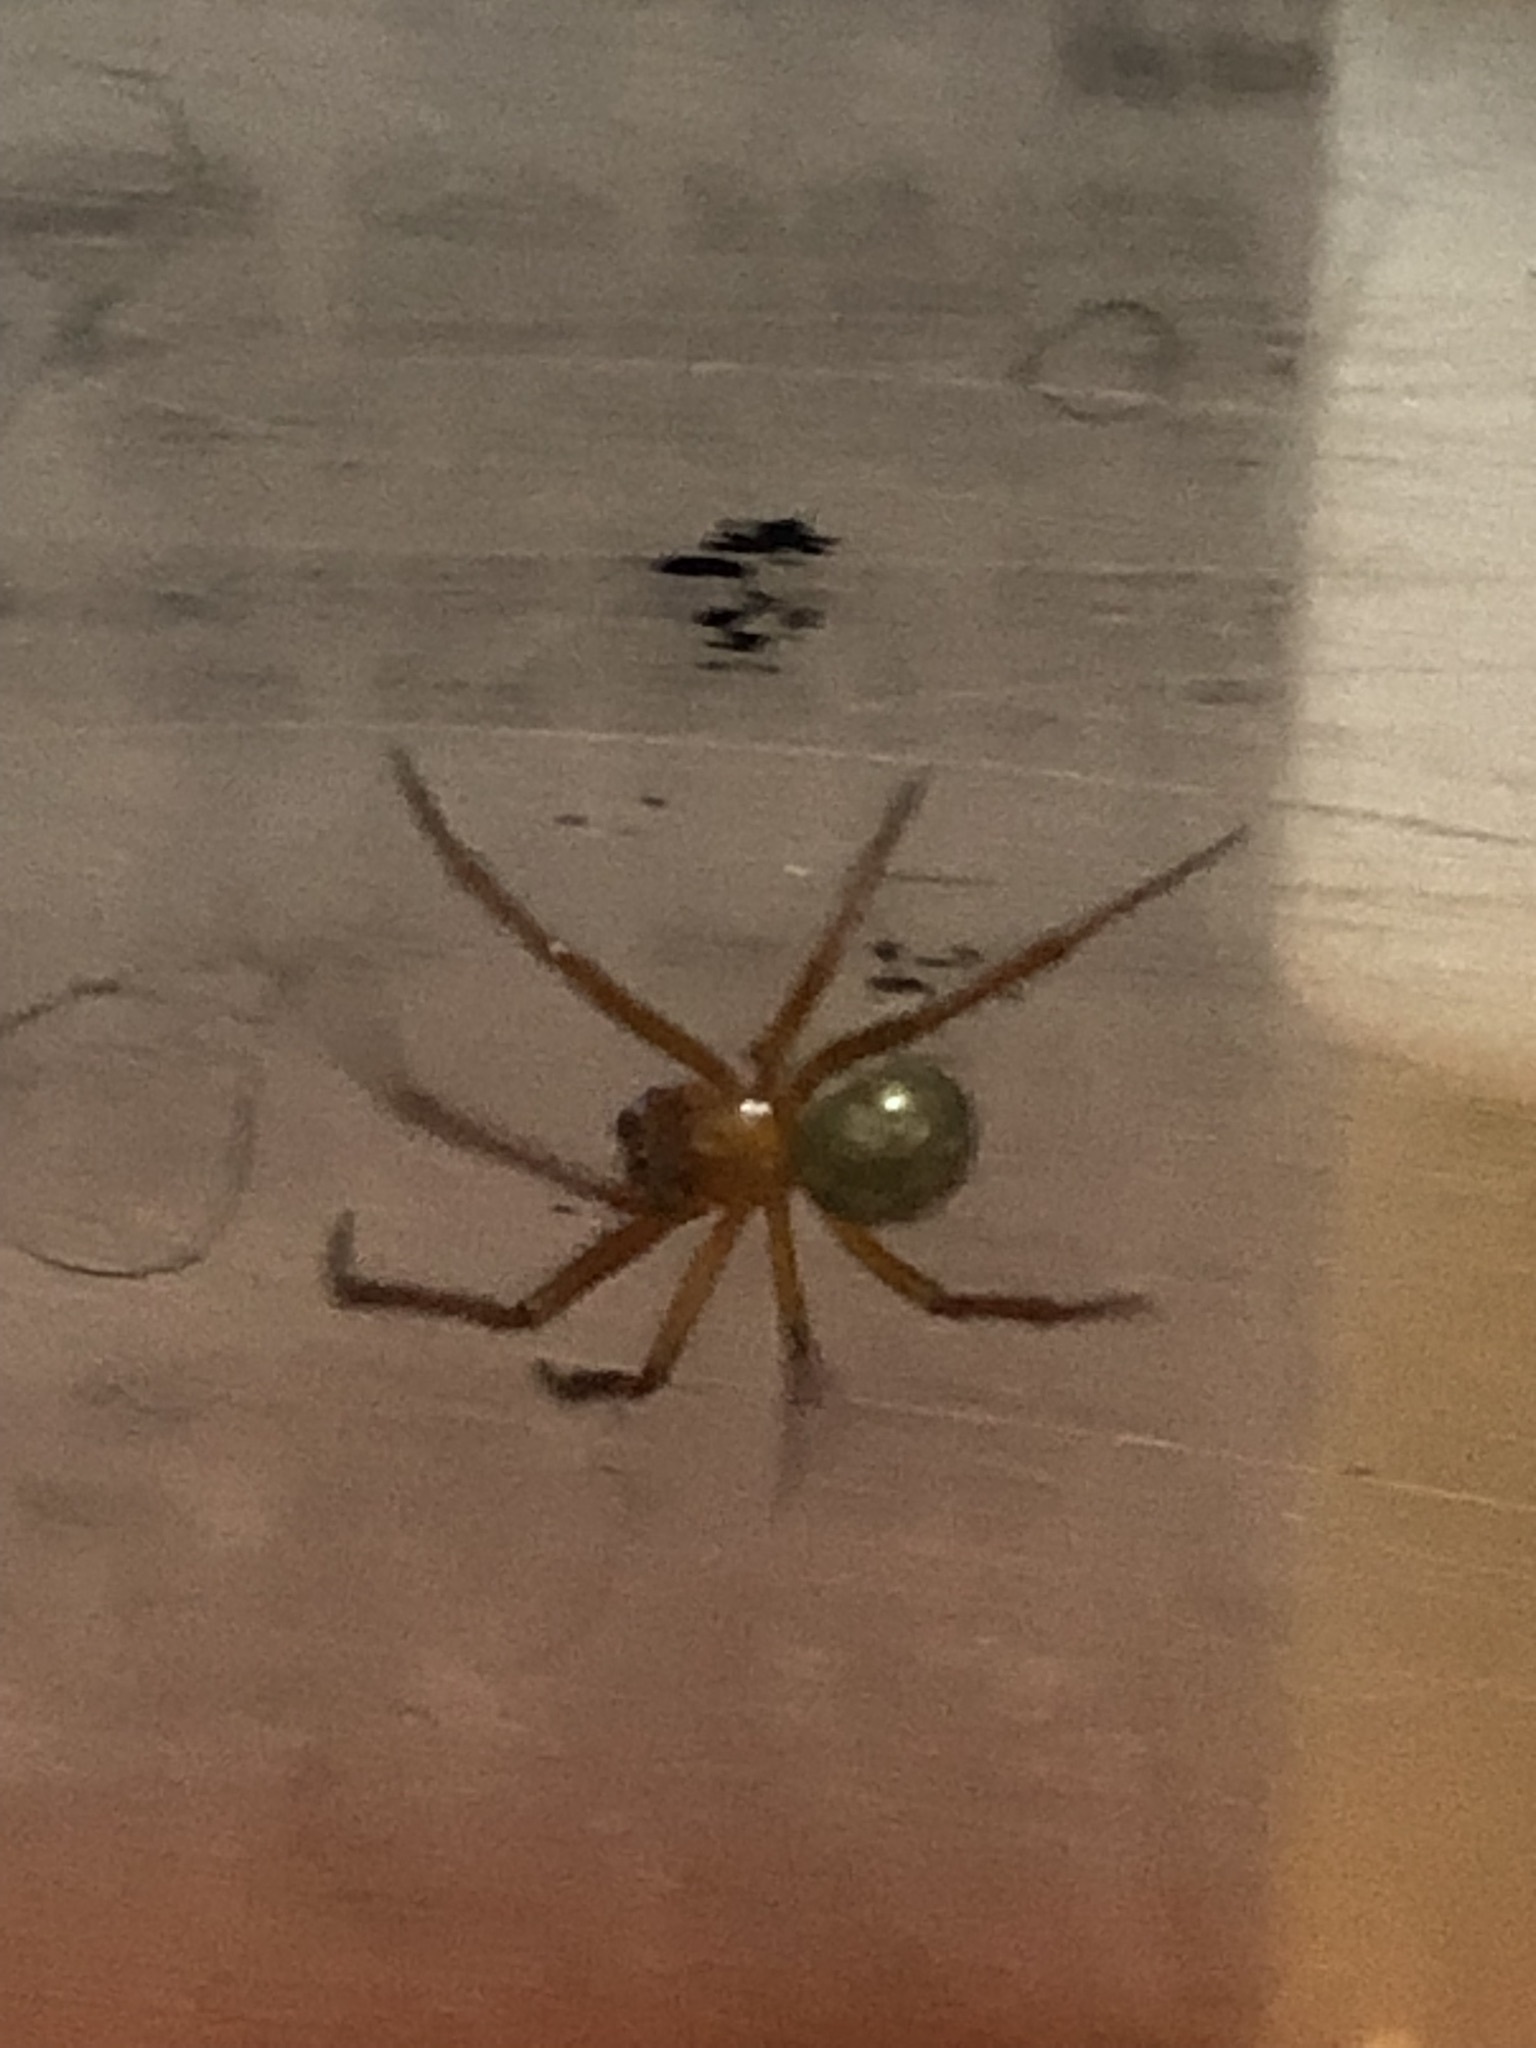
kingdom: Animalia
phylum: Arthropoda
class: Arachnida
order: Araneae
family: Theridiidae
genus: Nesticodes
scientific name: Nesticodes rufipes
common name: Cobweb spiders
